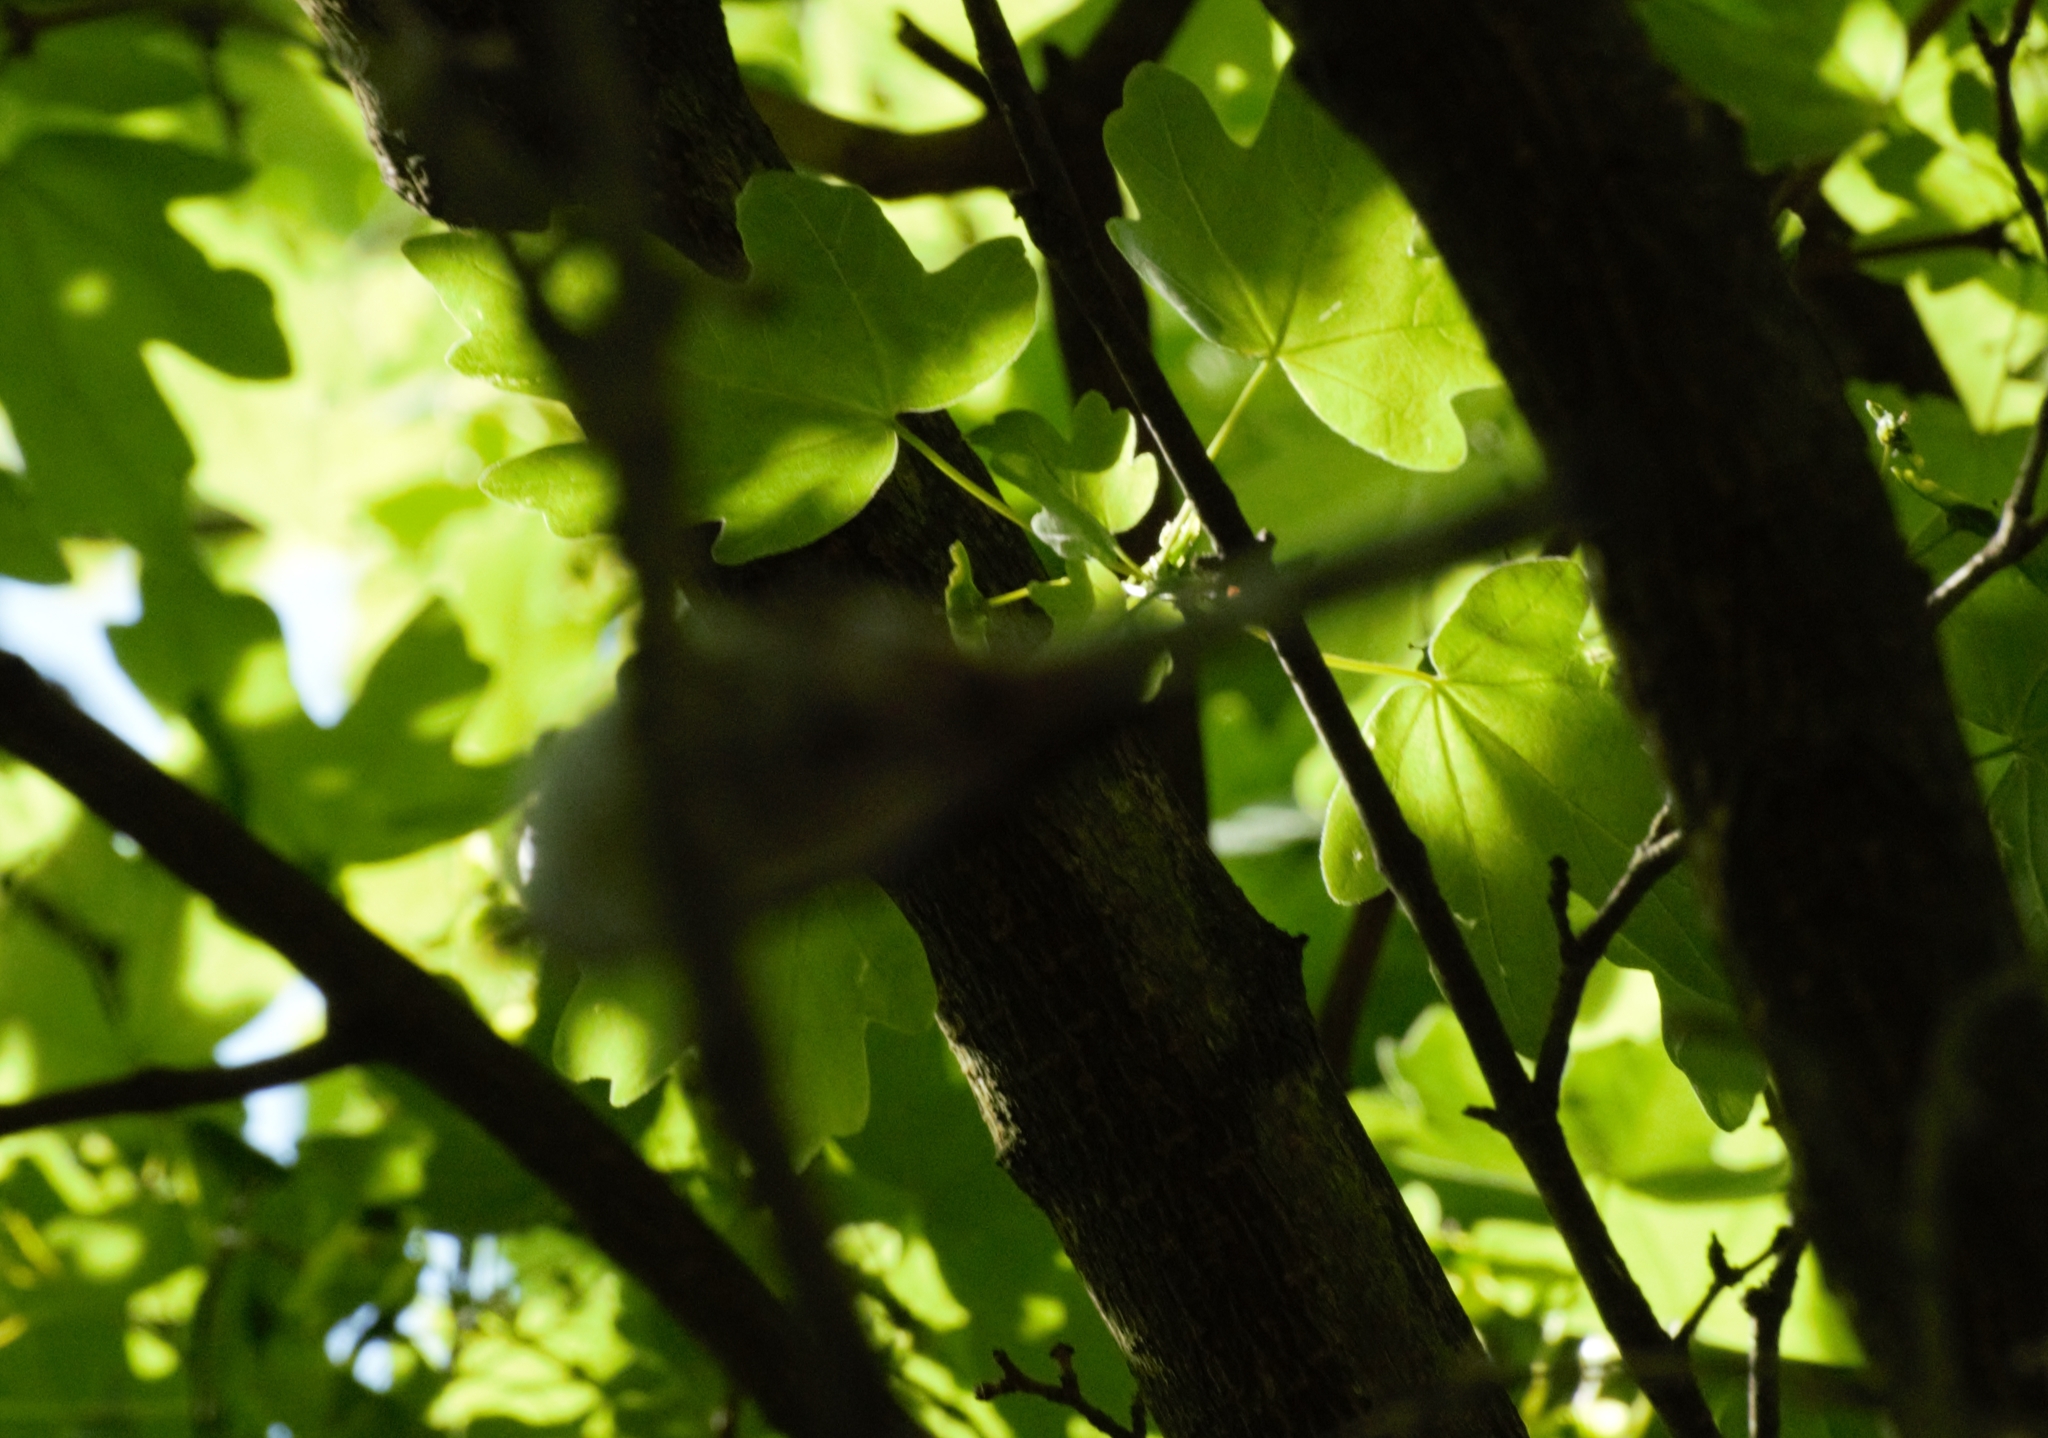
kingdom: Animalia
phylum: Chordata
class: Aves
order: Passeriformes
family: Aegithalidae
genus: Aegithalos
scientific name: Aegithalos caudatus
